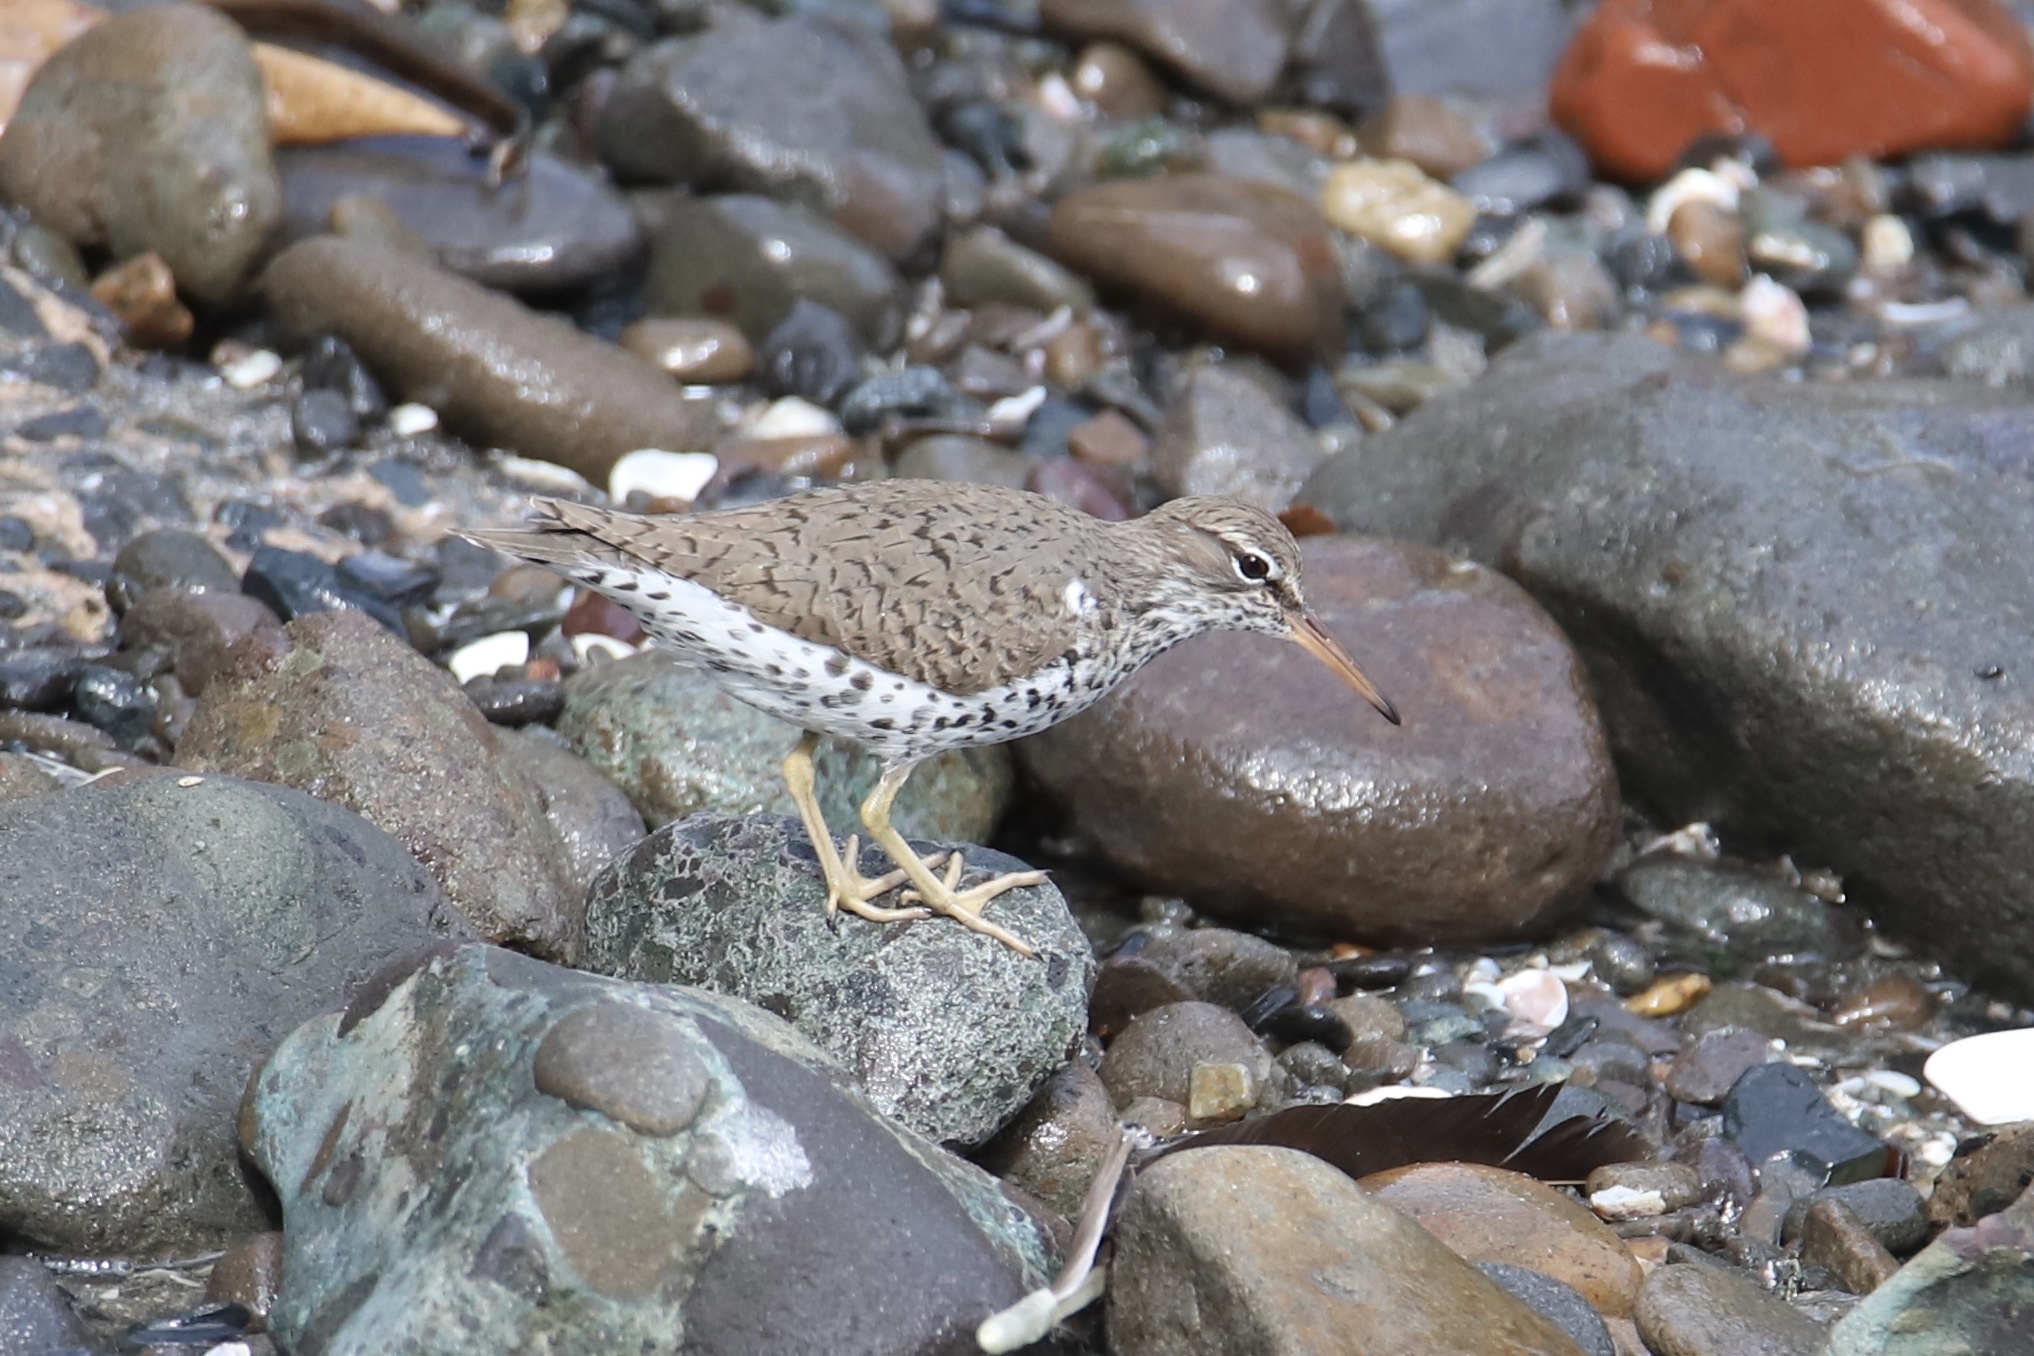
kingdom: Animalia
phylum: Chordata
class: Aves
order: Charadriiformes
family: Scolopacidae
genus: Actitis
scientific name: Actitis macularius
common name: Spotted sandpiper
